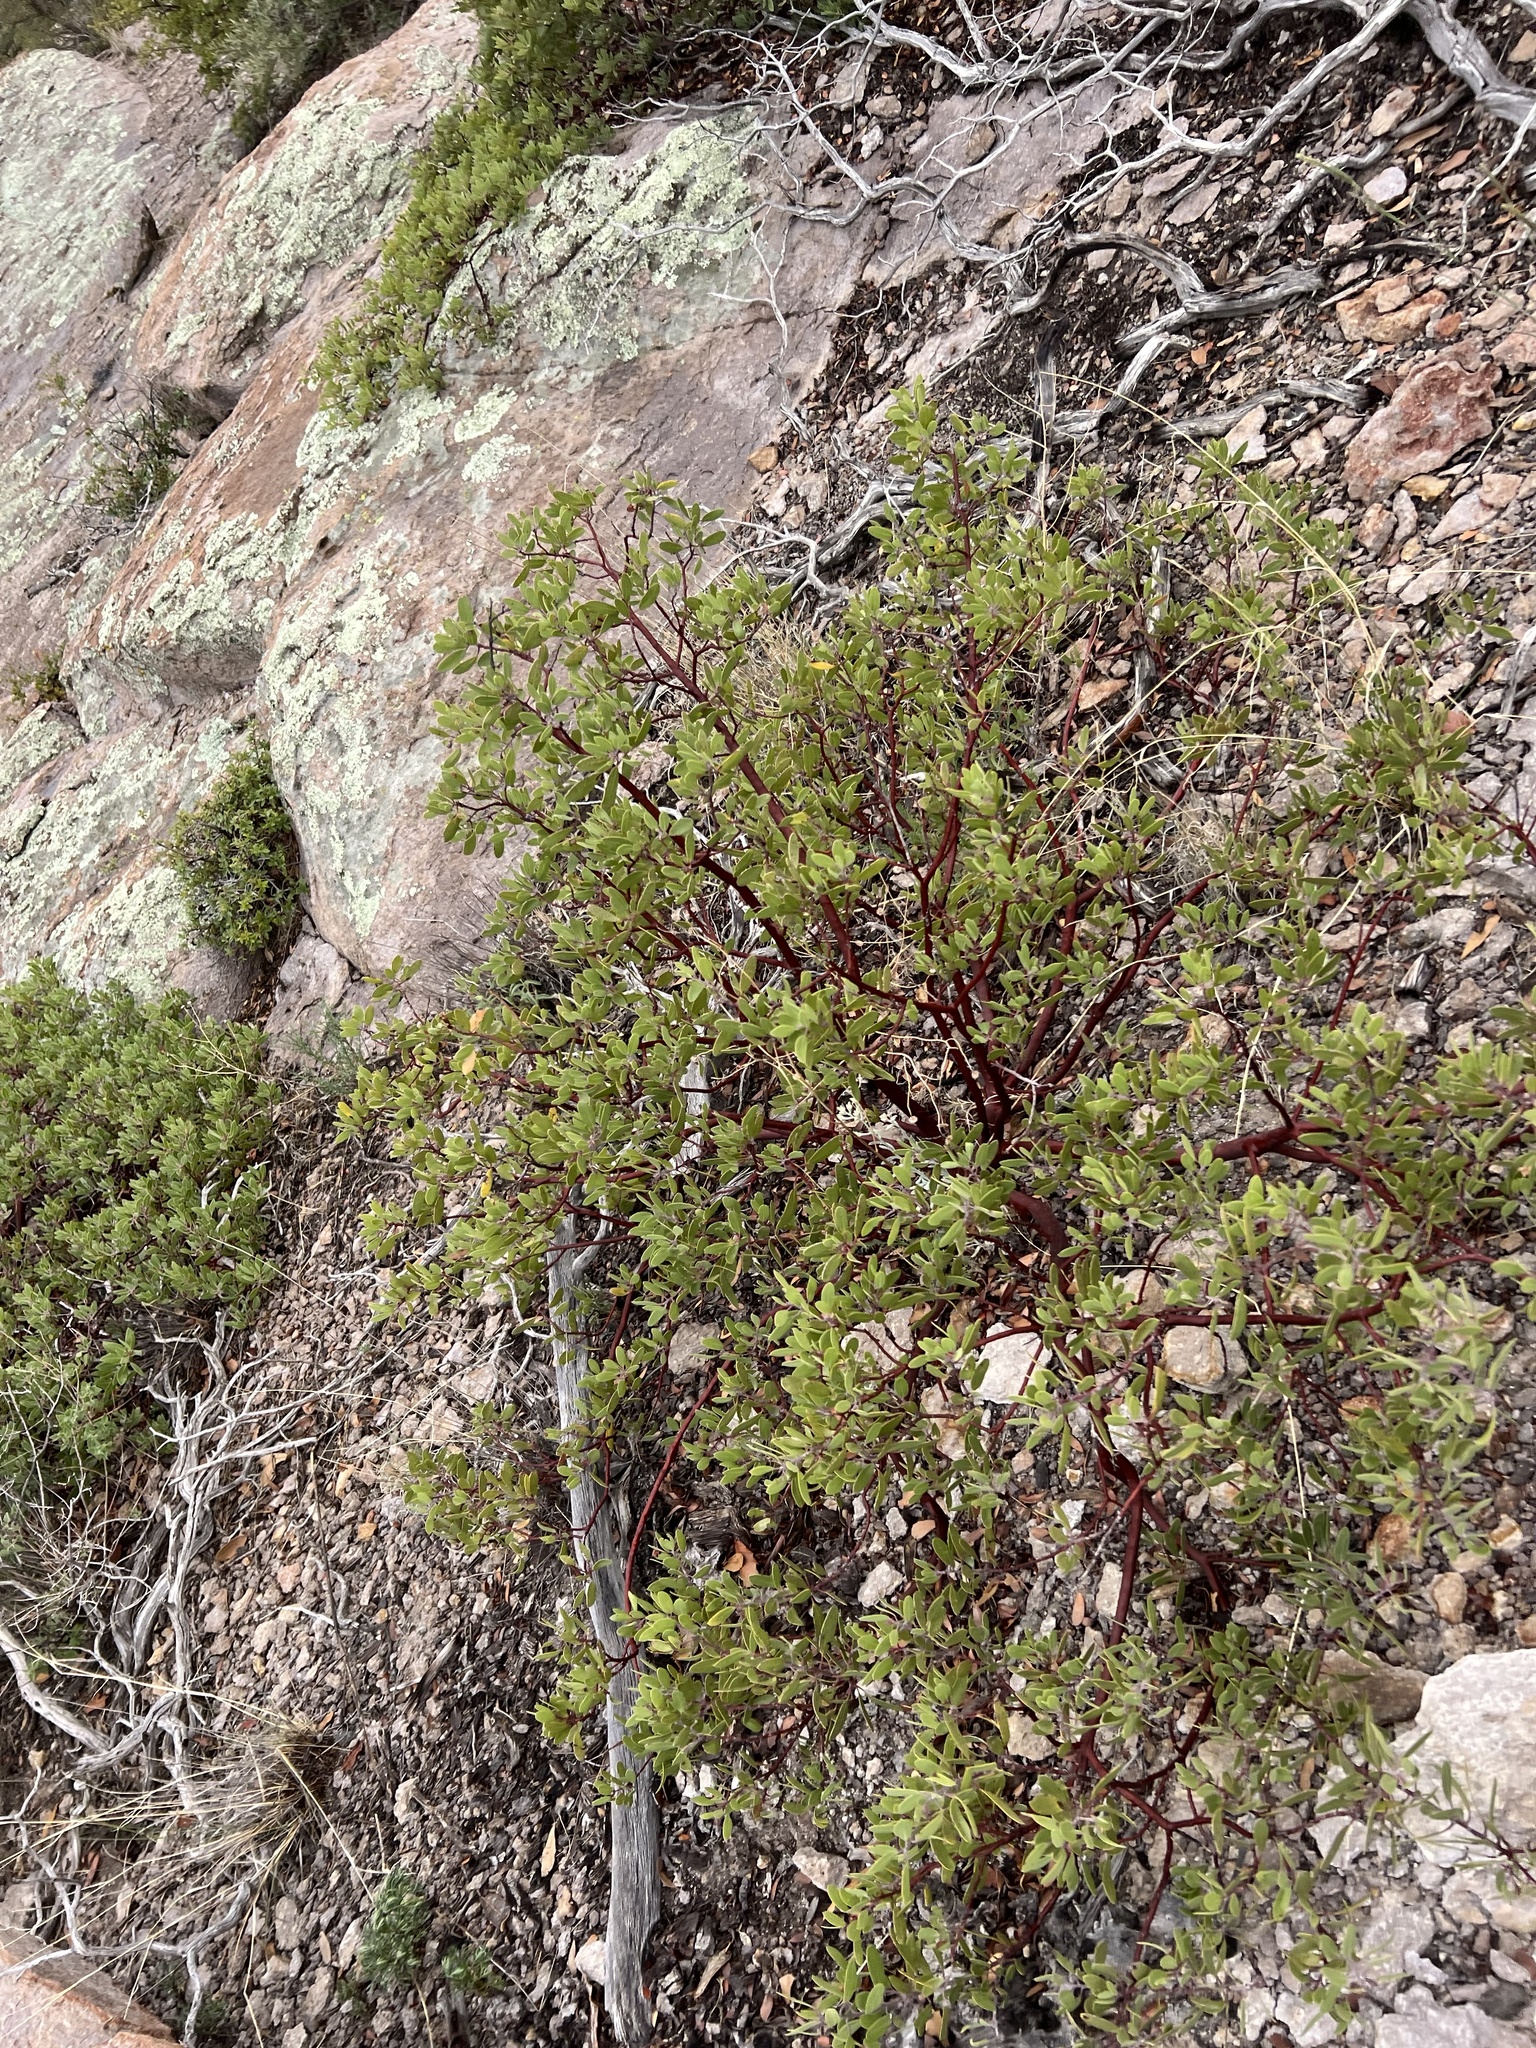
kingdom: Plantae
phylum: Tracheophyta
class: Magnoliopsida
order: Ericales
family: Ericaceae
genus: Arctostaphylos
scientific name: Arctostaphylos pungens
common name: Mexican manzanita
